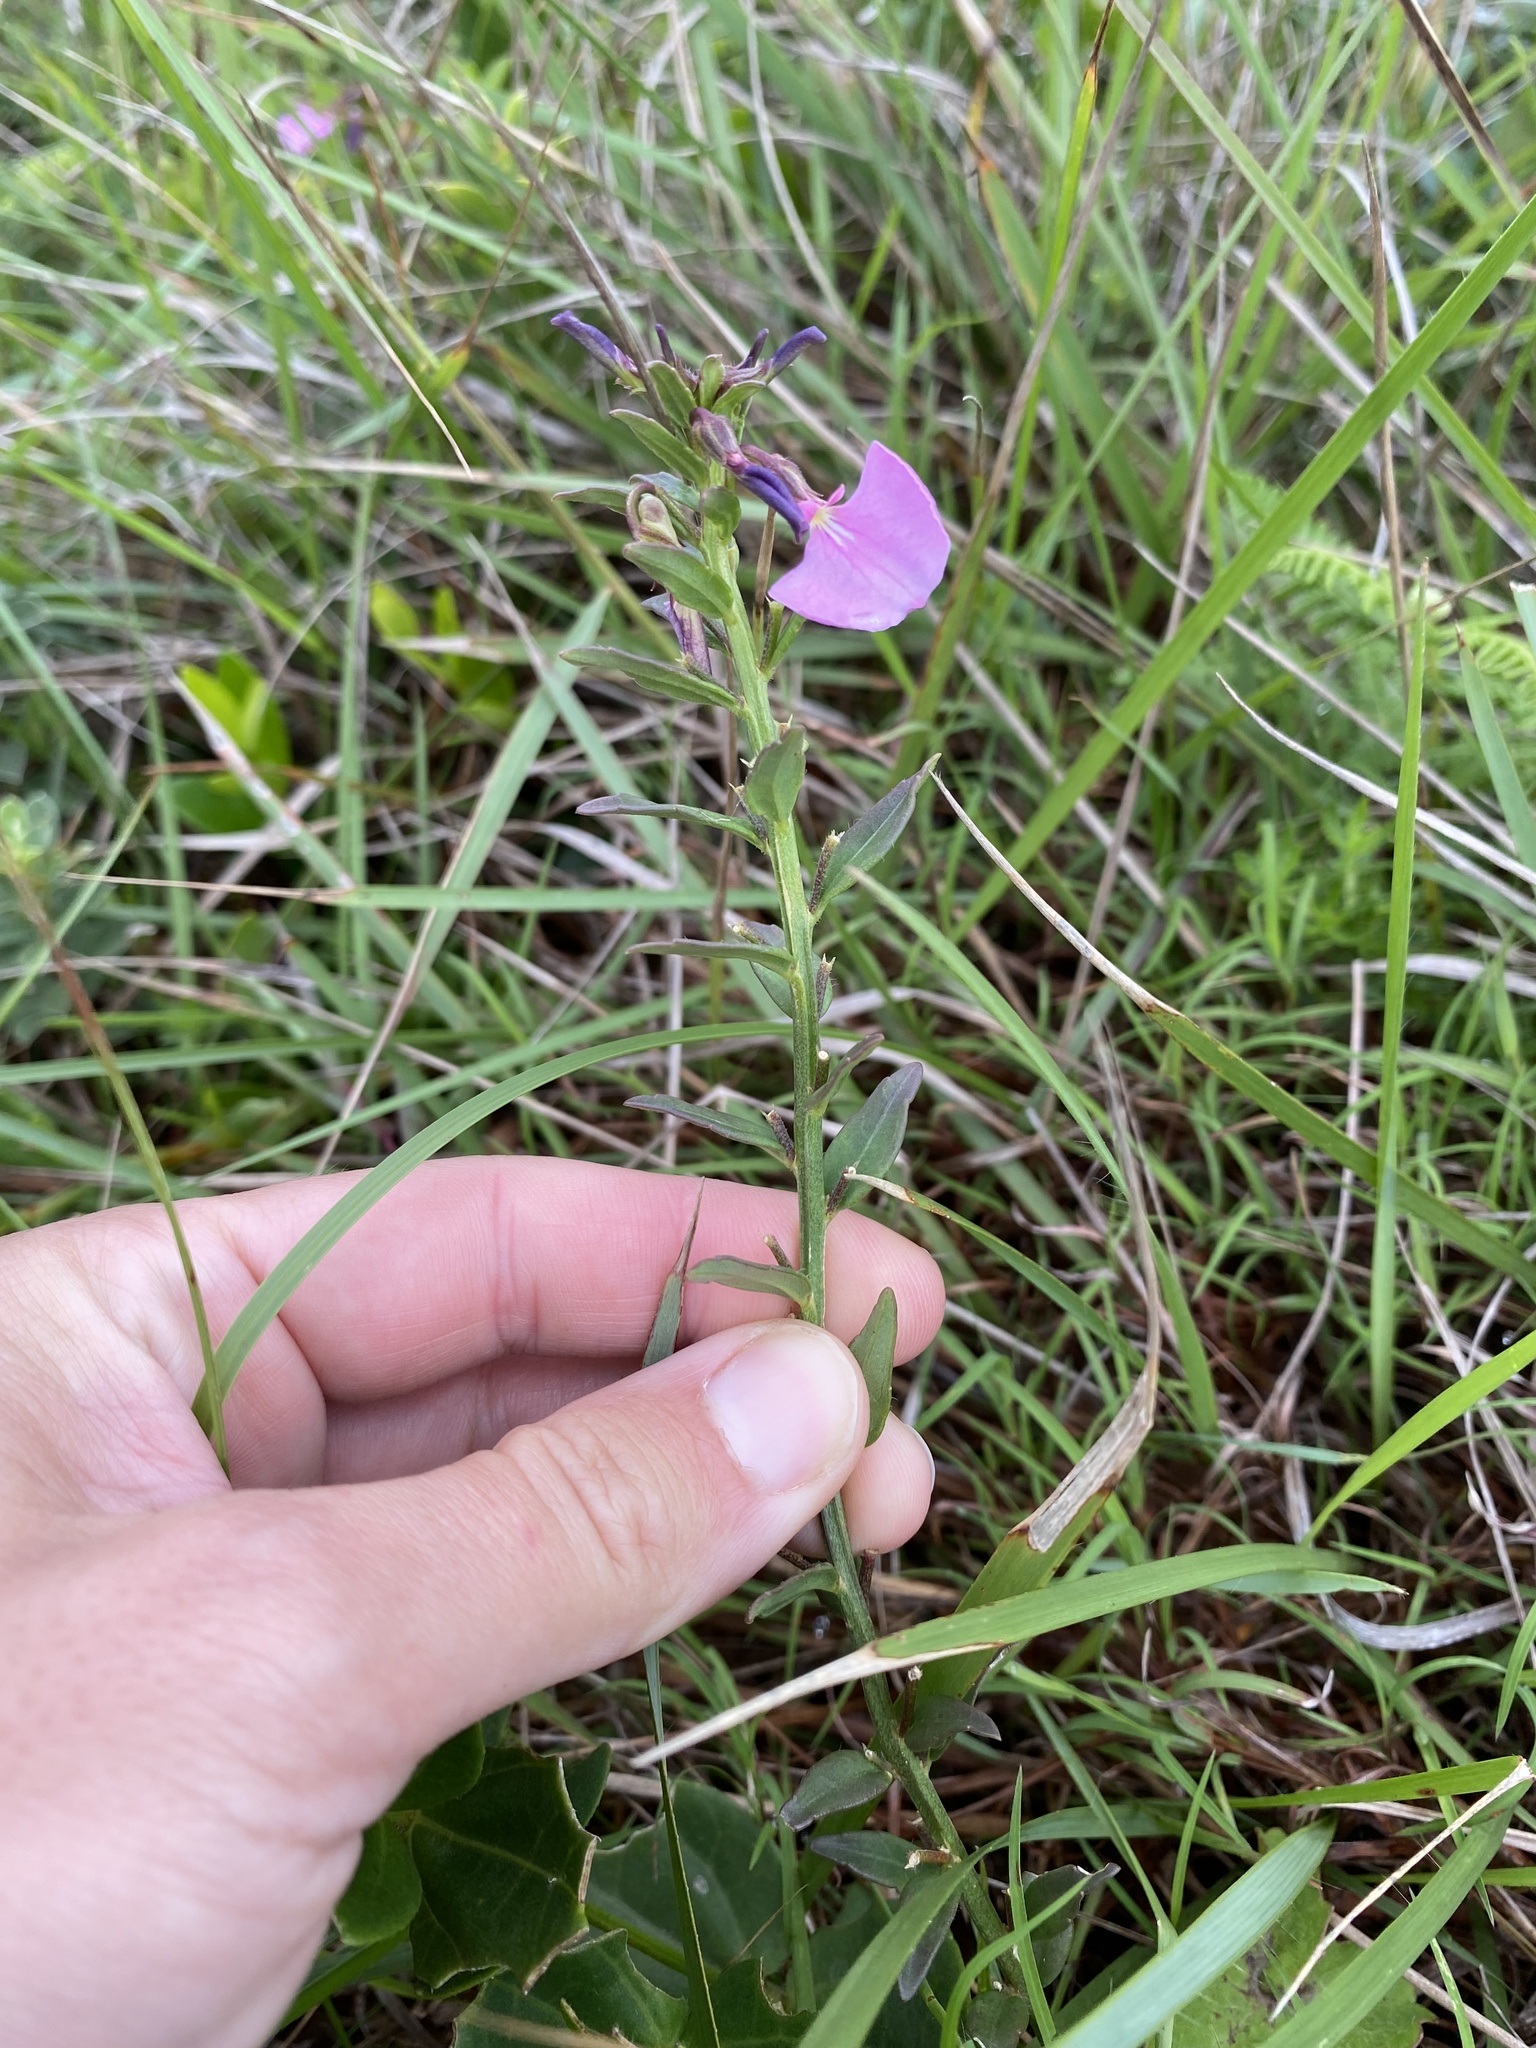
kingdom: Plantae
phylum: Tracheophyta
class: Magnoliopsida
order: Malpighiales
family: Violaceae
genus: Pigea
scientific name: Pigea enneasperma
